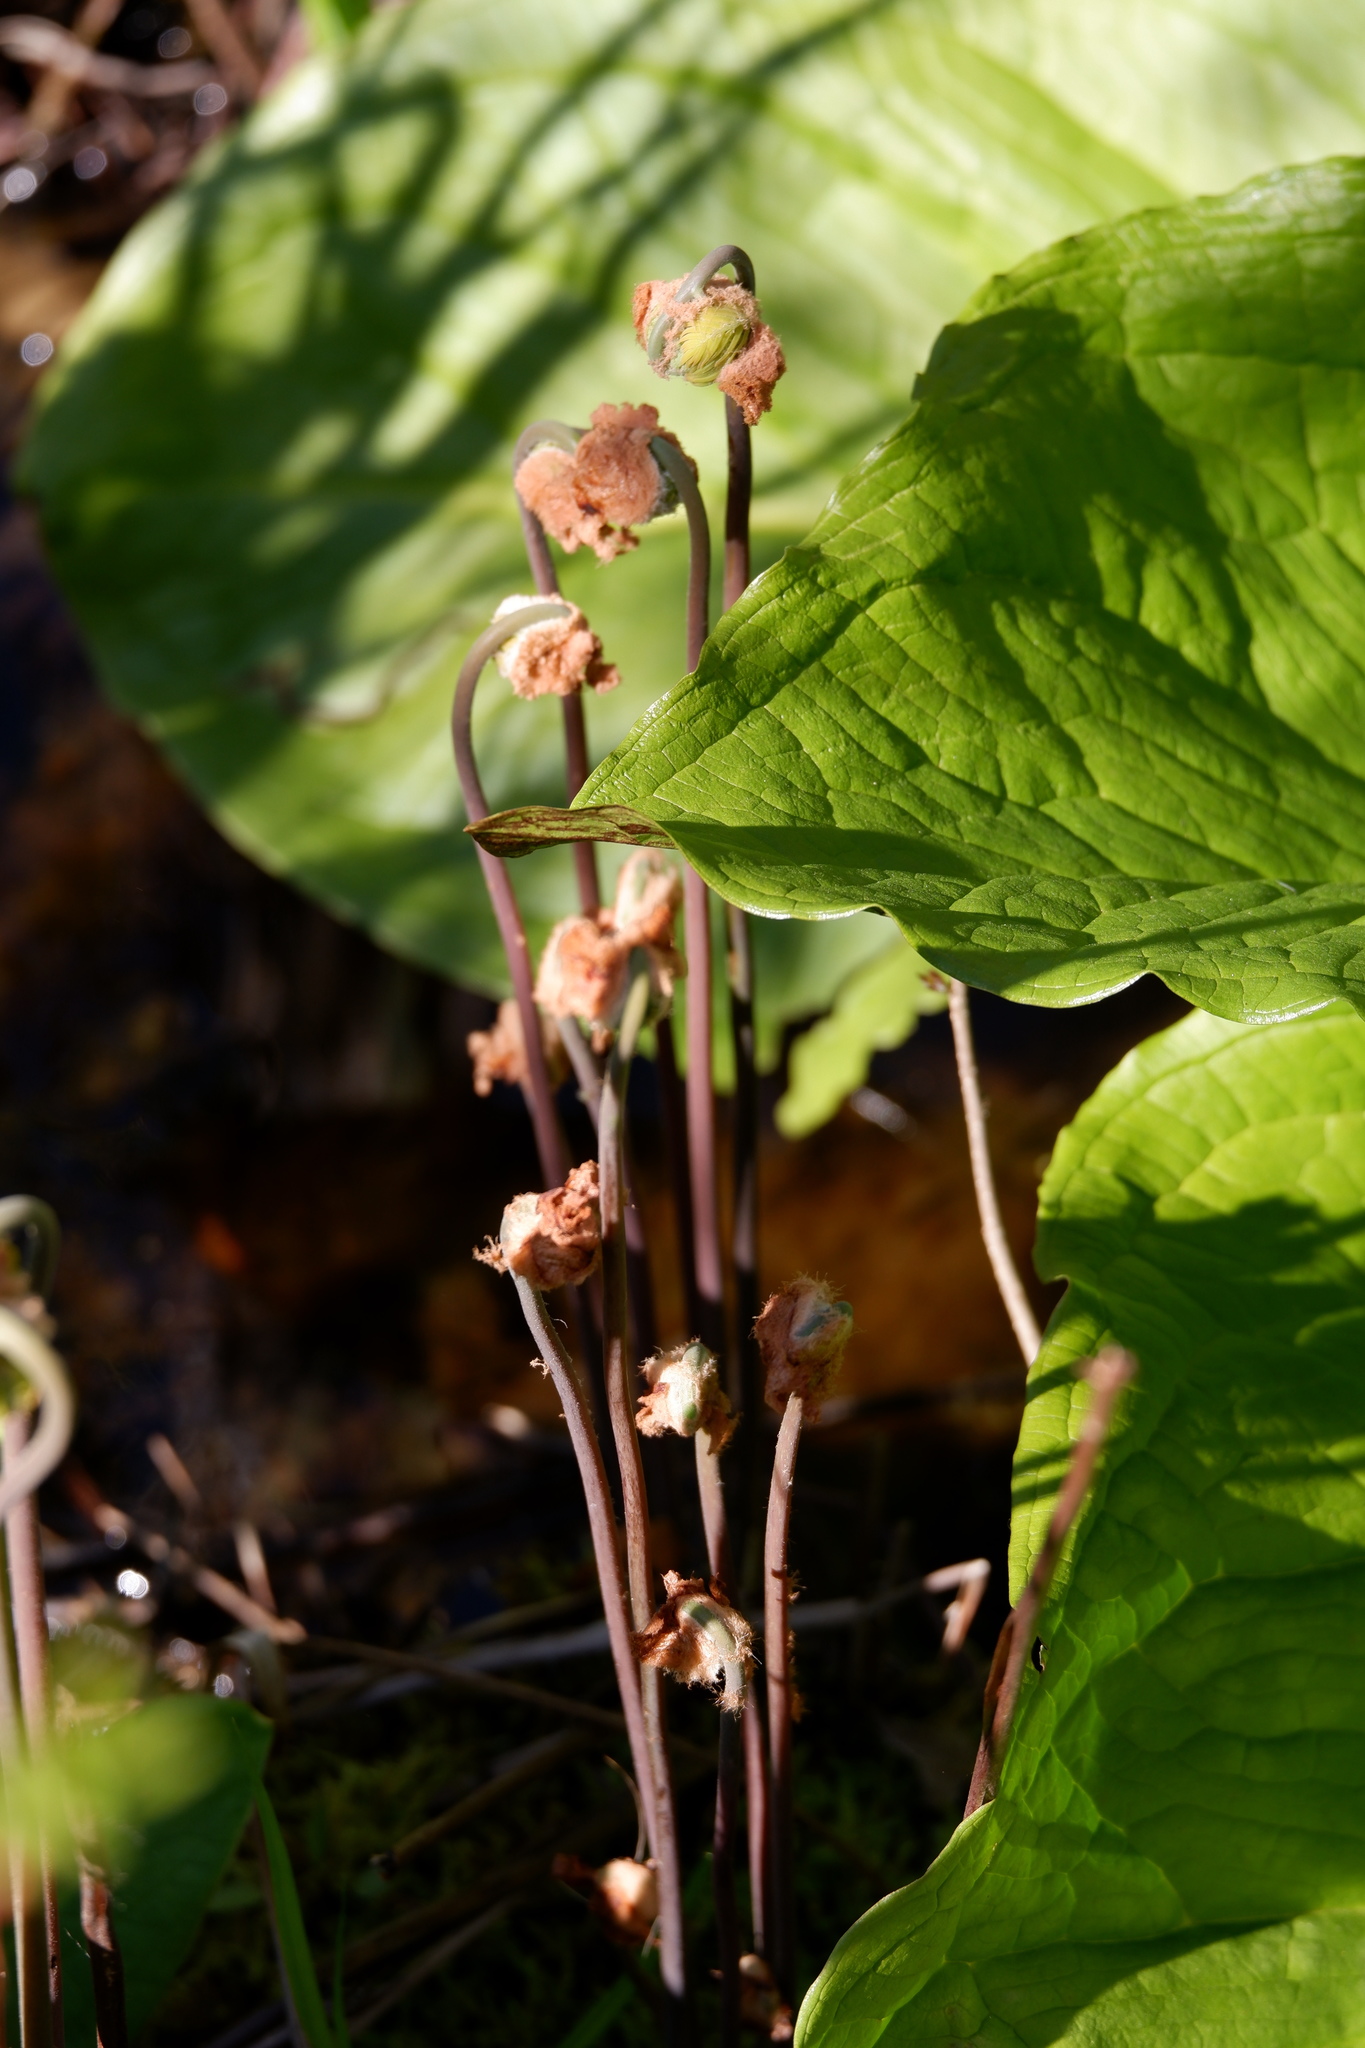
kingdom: Plantae
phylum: Tracheophyta
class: Polypodiopsida
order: Osmundales
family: Osmundaceae
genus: Osmunda
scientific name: Osmunda spectabilis
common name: American royal fern
